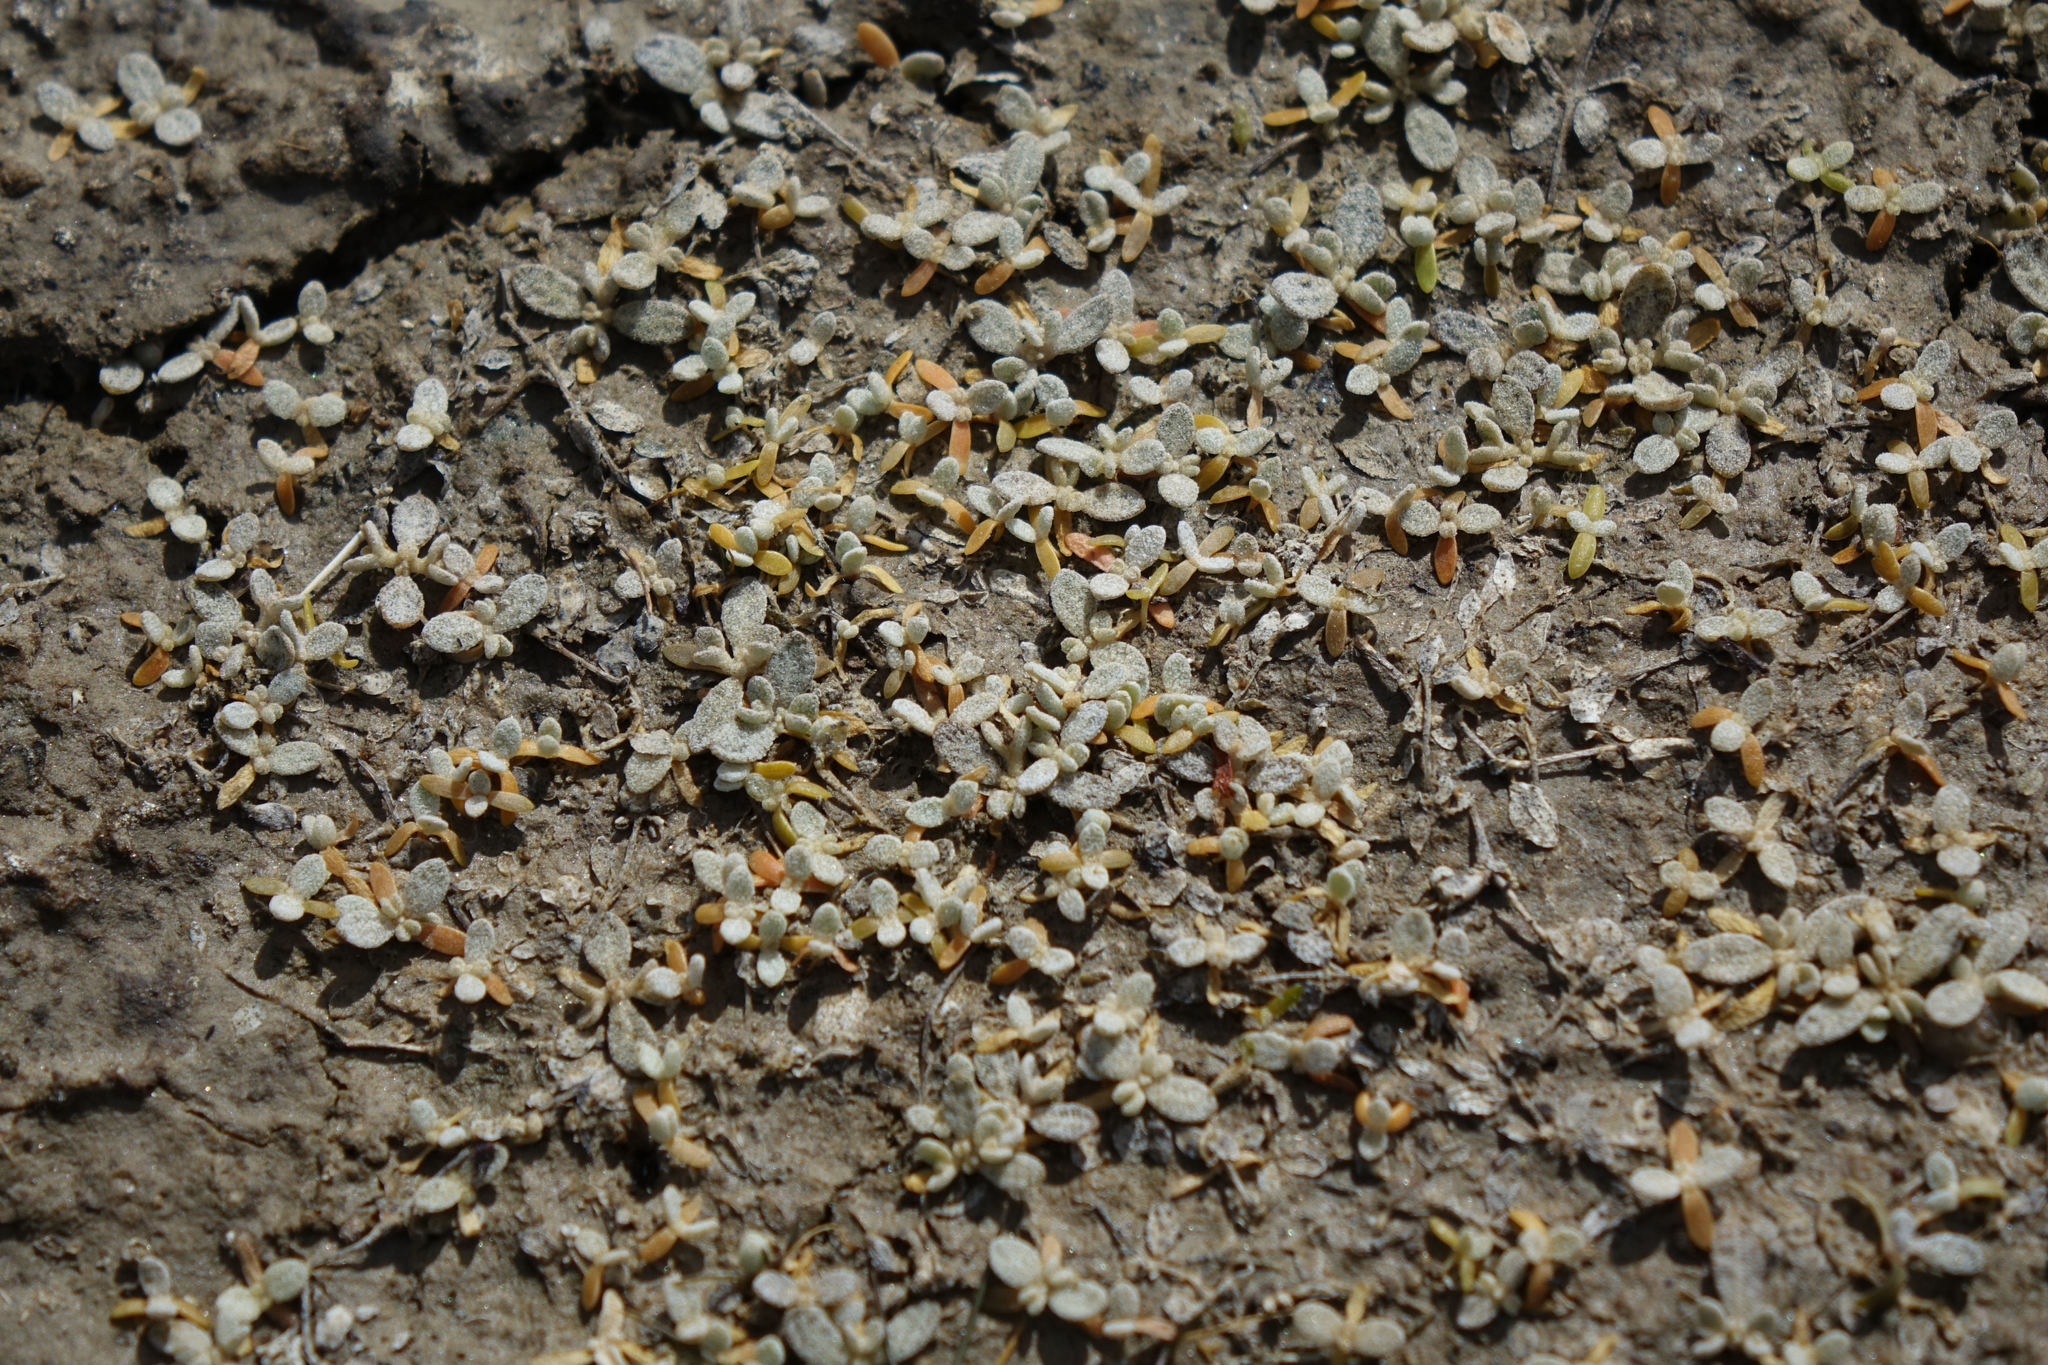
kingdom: Plantae
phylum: Tracheophyta
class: Magnoliopsida
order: Caryophyllales
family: Amaranthaceae
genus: Atriplex
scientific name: Atriplex buchananii
